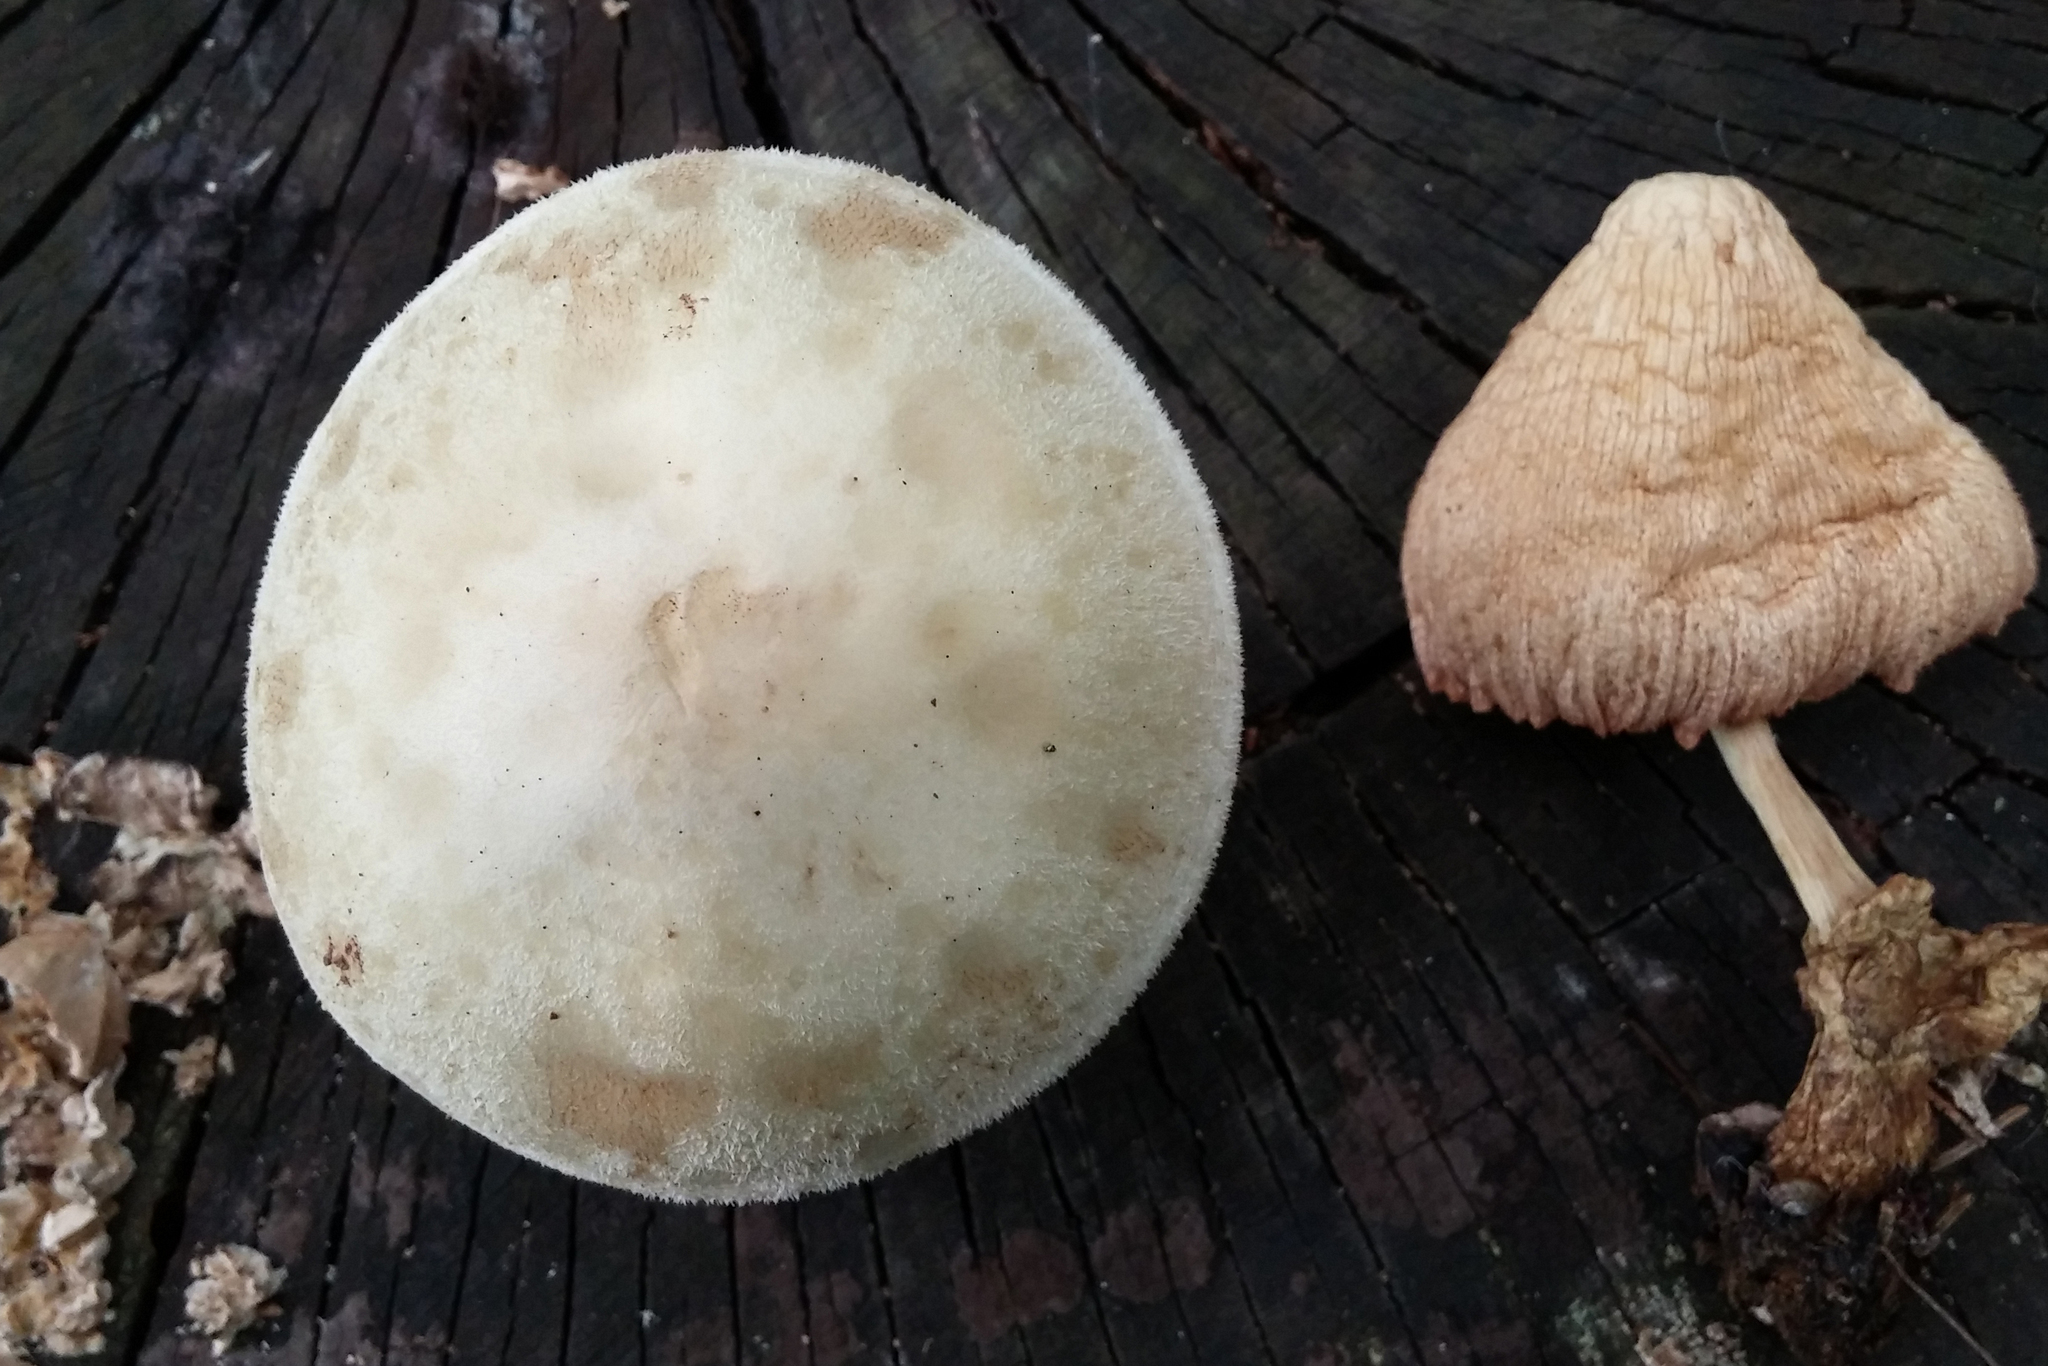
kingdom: Fungi
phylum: Basidiomycota
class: Agaricomycetes
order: Agaricales
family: Pluteaceae
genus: Volvariella
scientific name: Volvariella bombycina
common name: Silky rosegill
